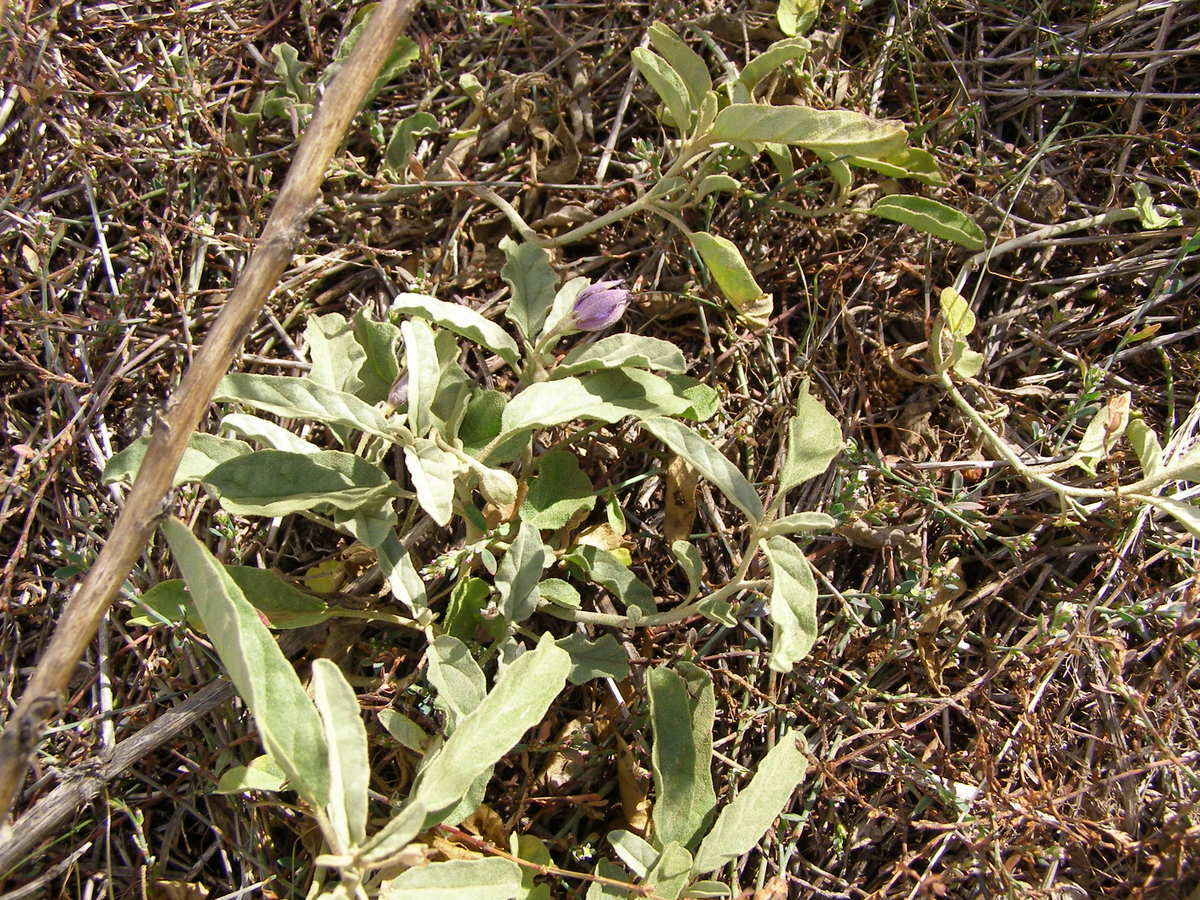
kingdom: Plantae
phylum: Tracheophyta
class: Magnoliopsida
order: Solanales
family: Solanaceae
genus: Solanum
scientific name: Solanum esuriale
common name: Wild tomato
